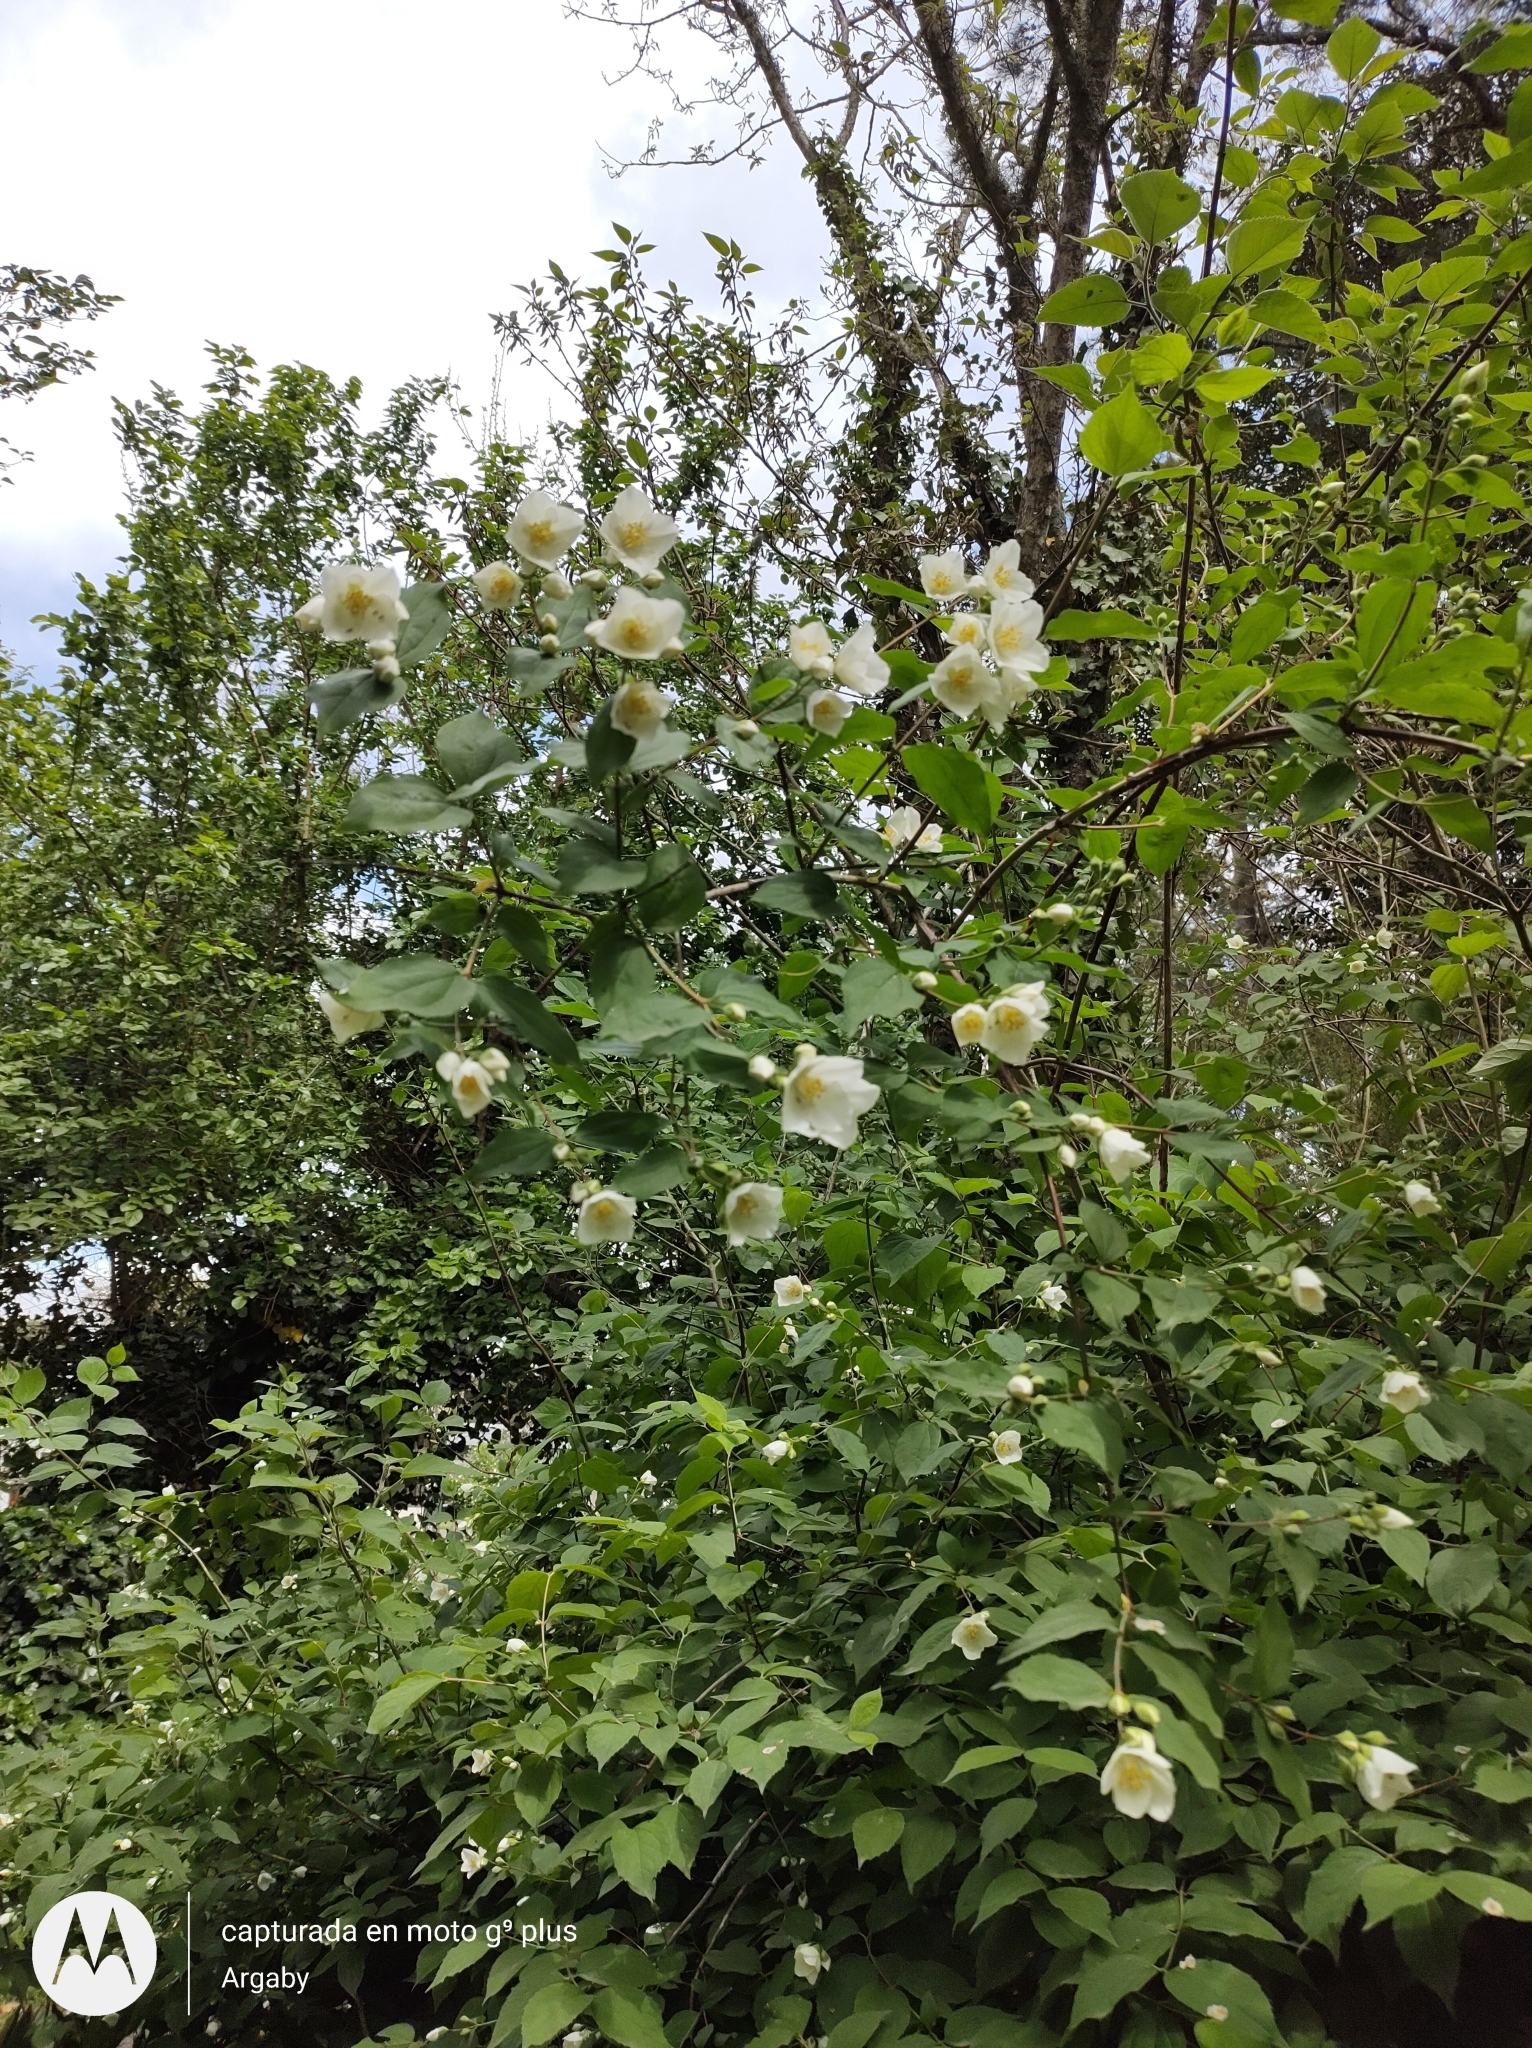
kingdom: Plantae
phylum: Tracheophyta
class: Magnoliopsida
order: Cornales
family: Hydrangeaceae
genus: Philadelphus
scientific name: Philadelphus coronarius
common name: Mock orange
